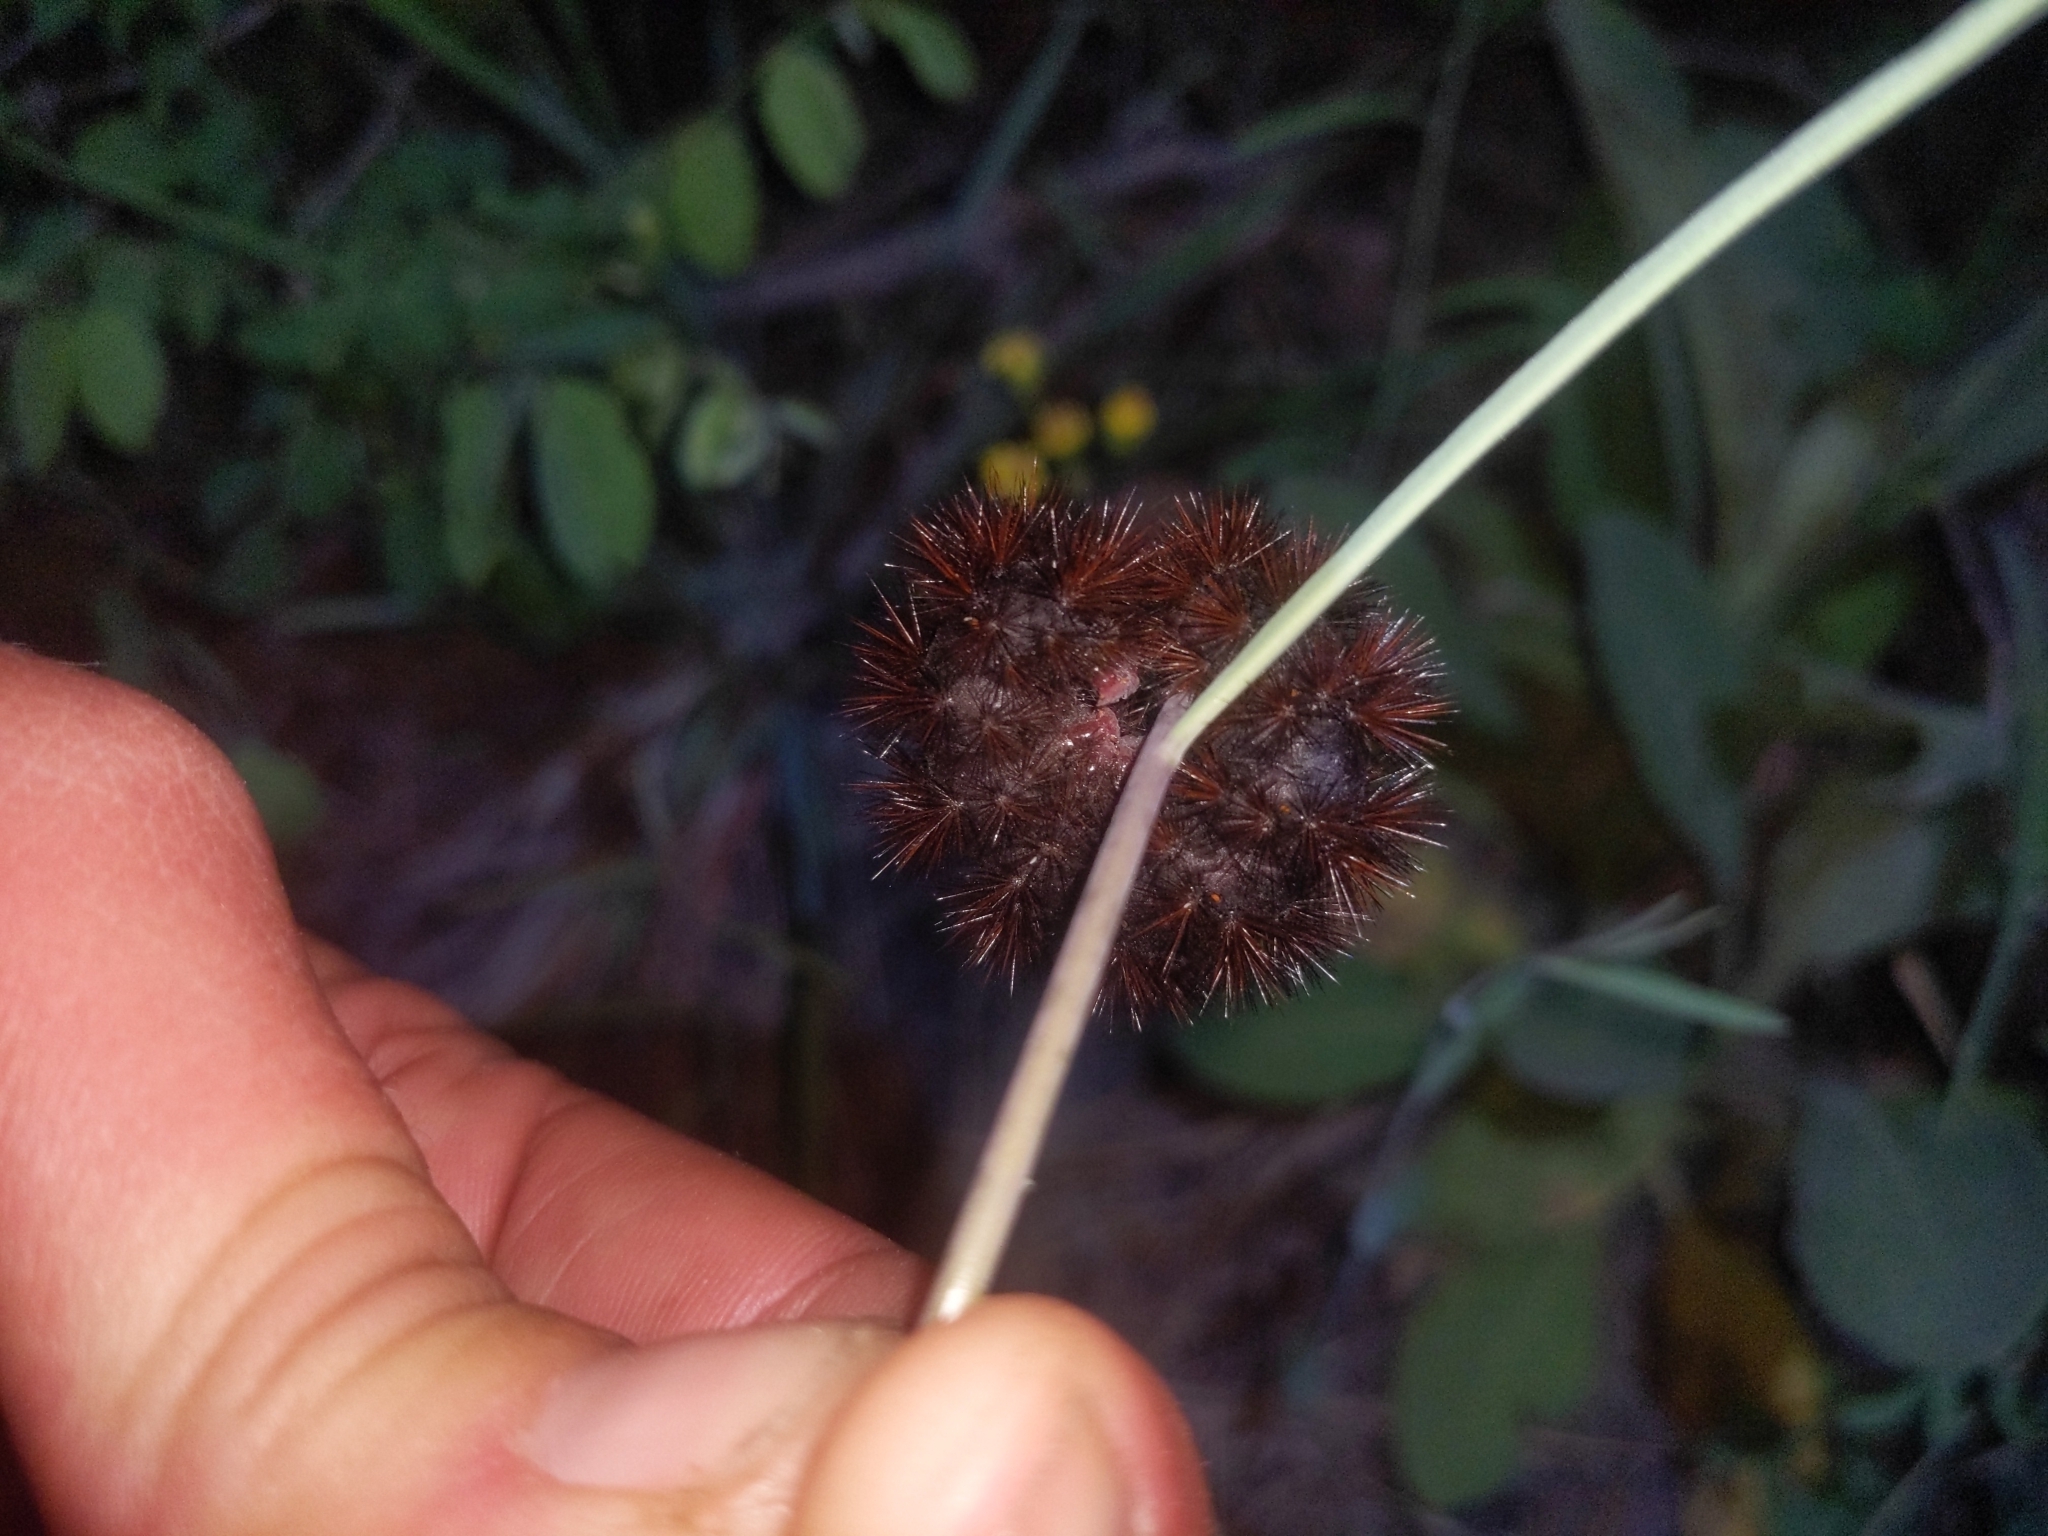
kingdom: Animalia
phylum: Arthropoda
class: Insecta
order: Lepidoptera
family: Erebidae
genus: Arachnis
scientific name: Arachnis picta
